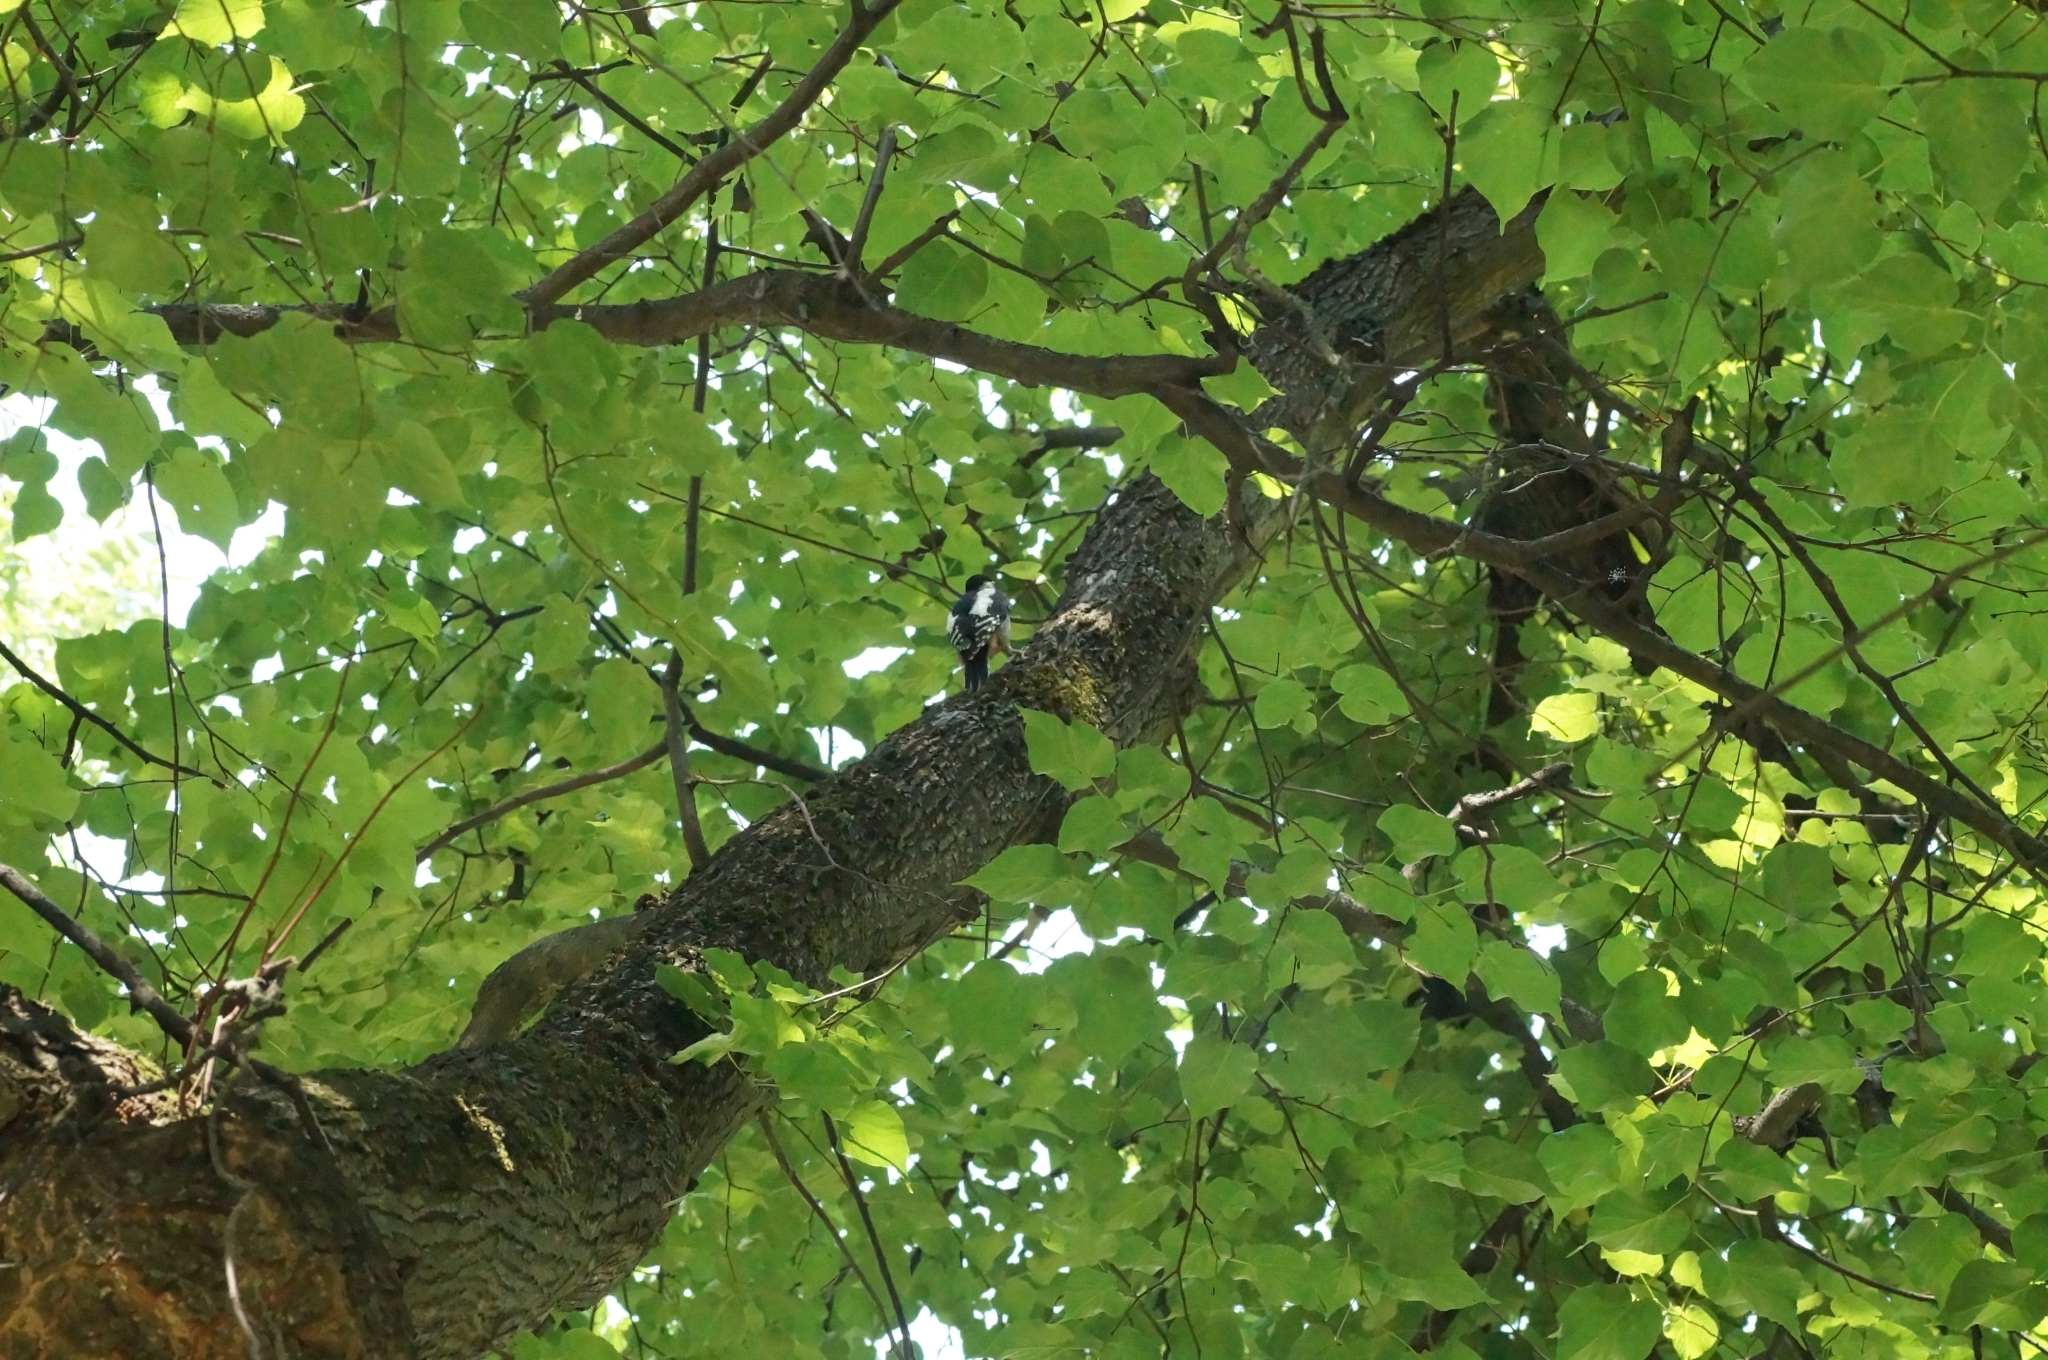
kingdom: Animalia
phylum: Chordata
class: Aves
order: Piciformes
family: Picidae
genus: Dendrocopos
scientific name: Dendrocopos major
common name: Great spotted woodpecker
